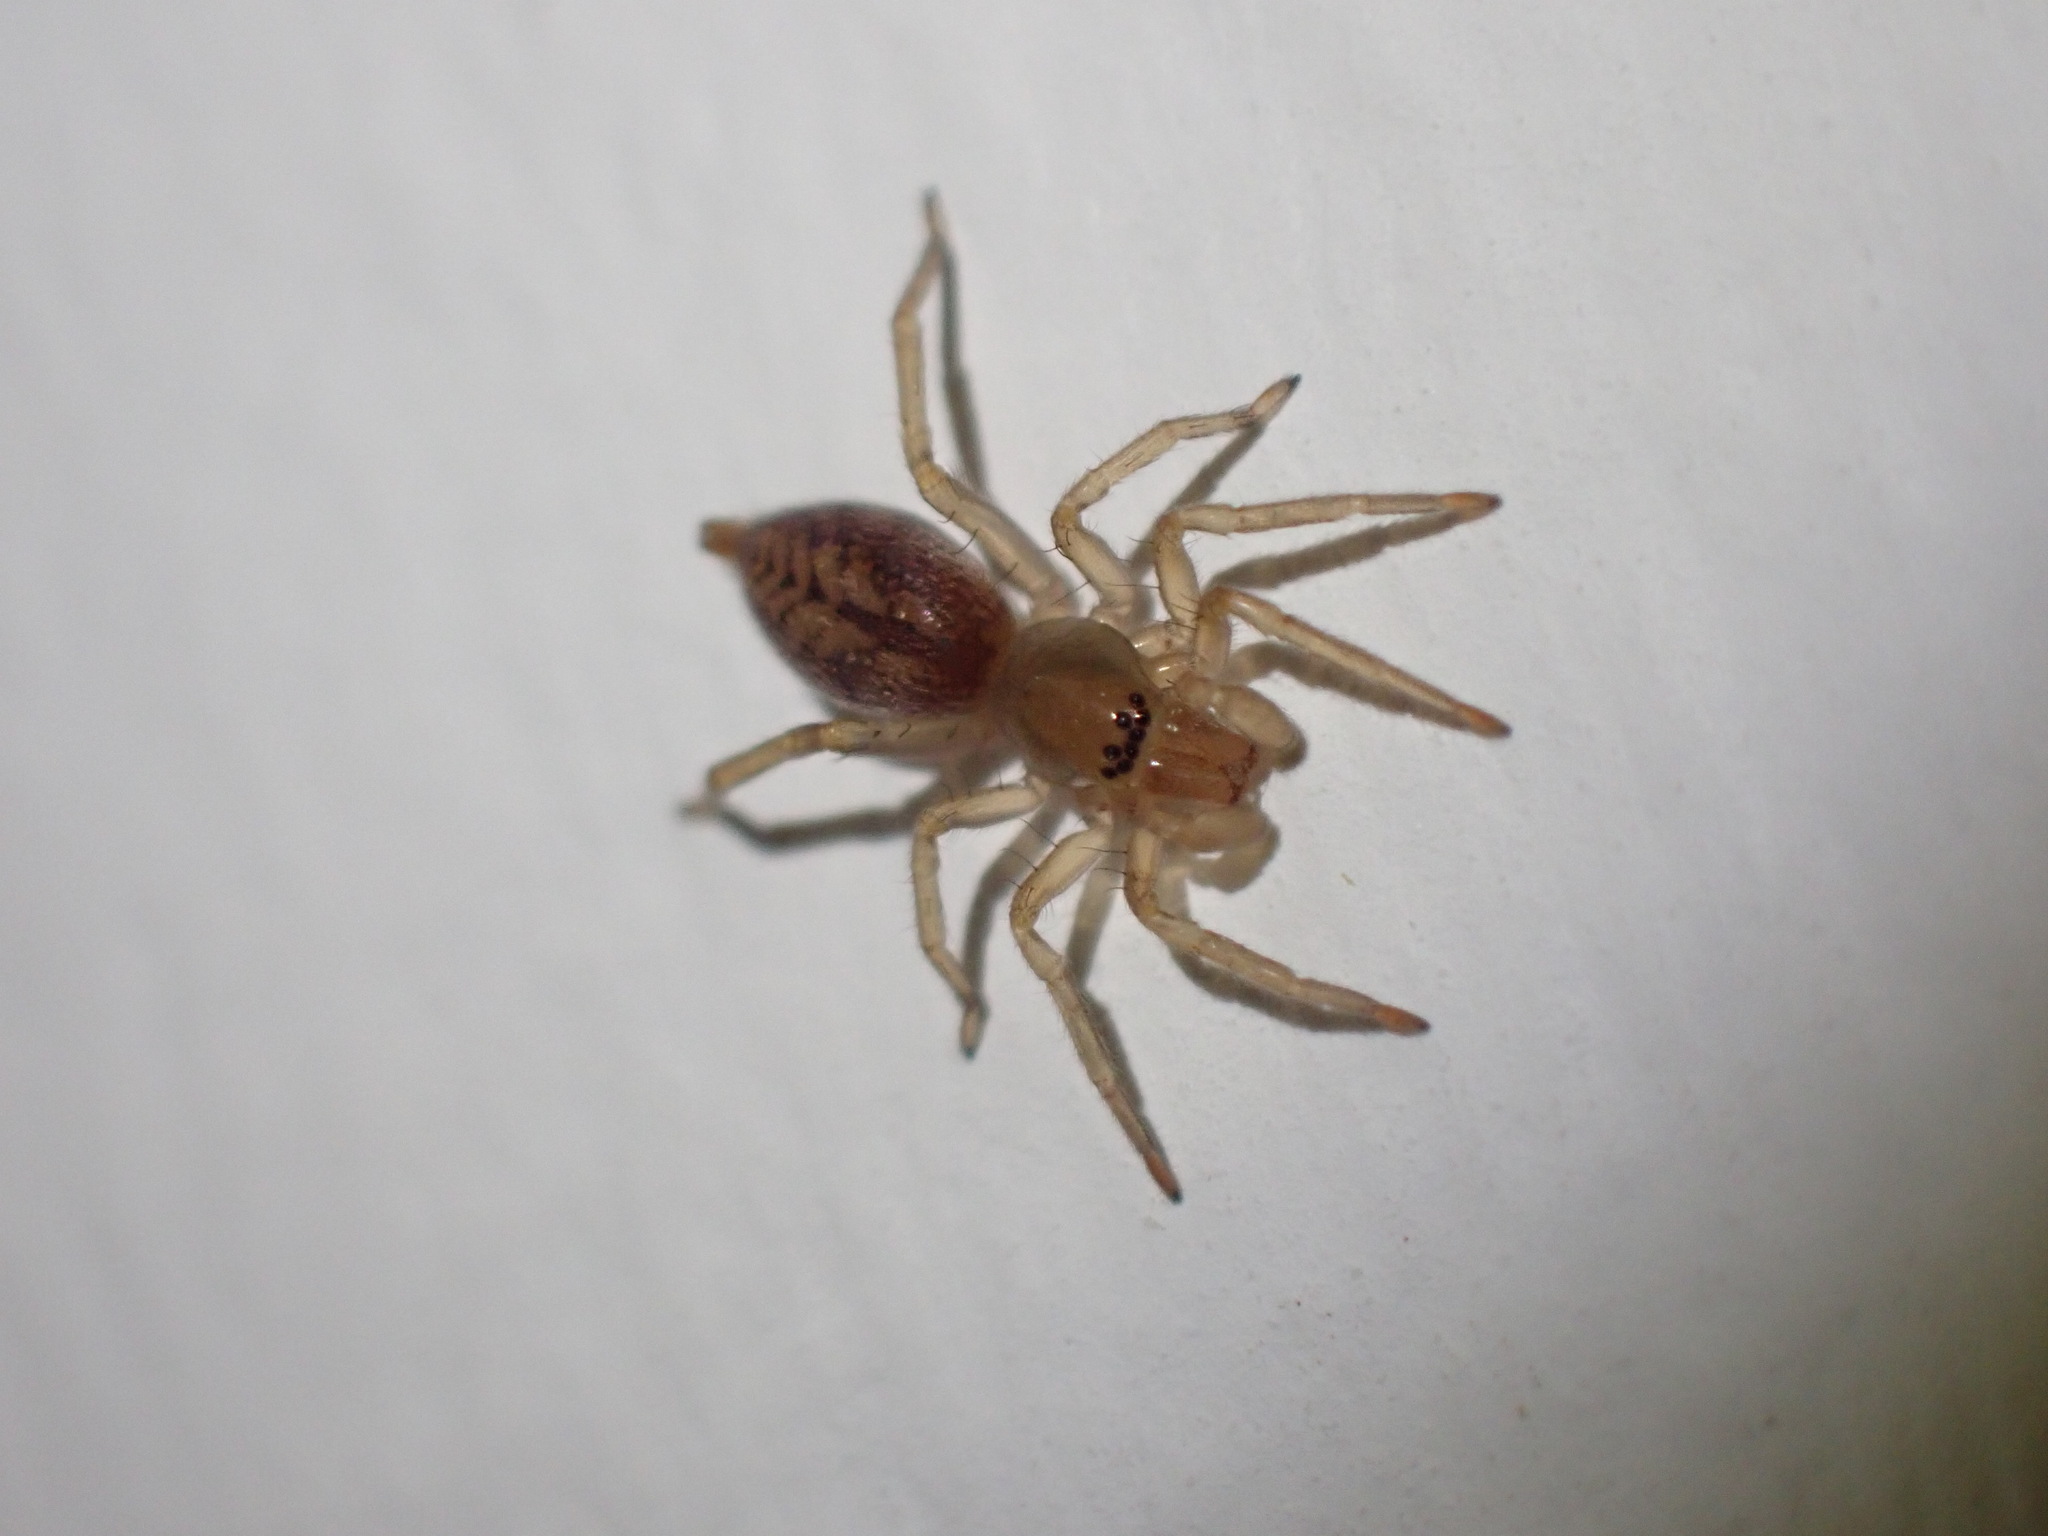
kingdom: Animalia
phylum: Arthropoda
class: Arachnida
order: Araneae
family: Clubionidae
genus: Clubiona
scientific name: Clubiona comta
